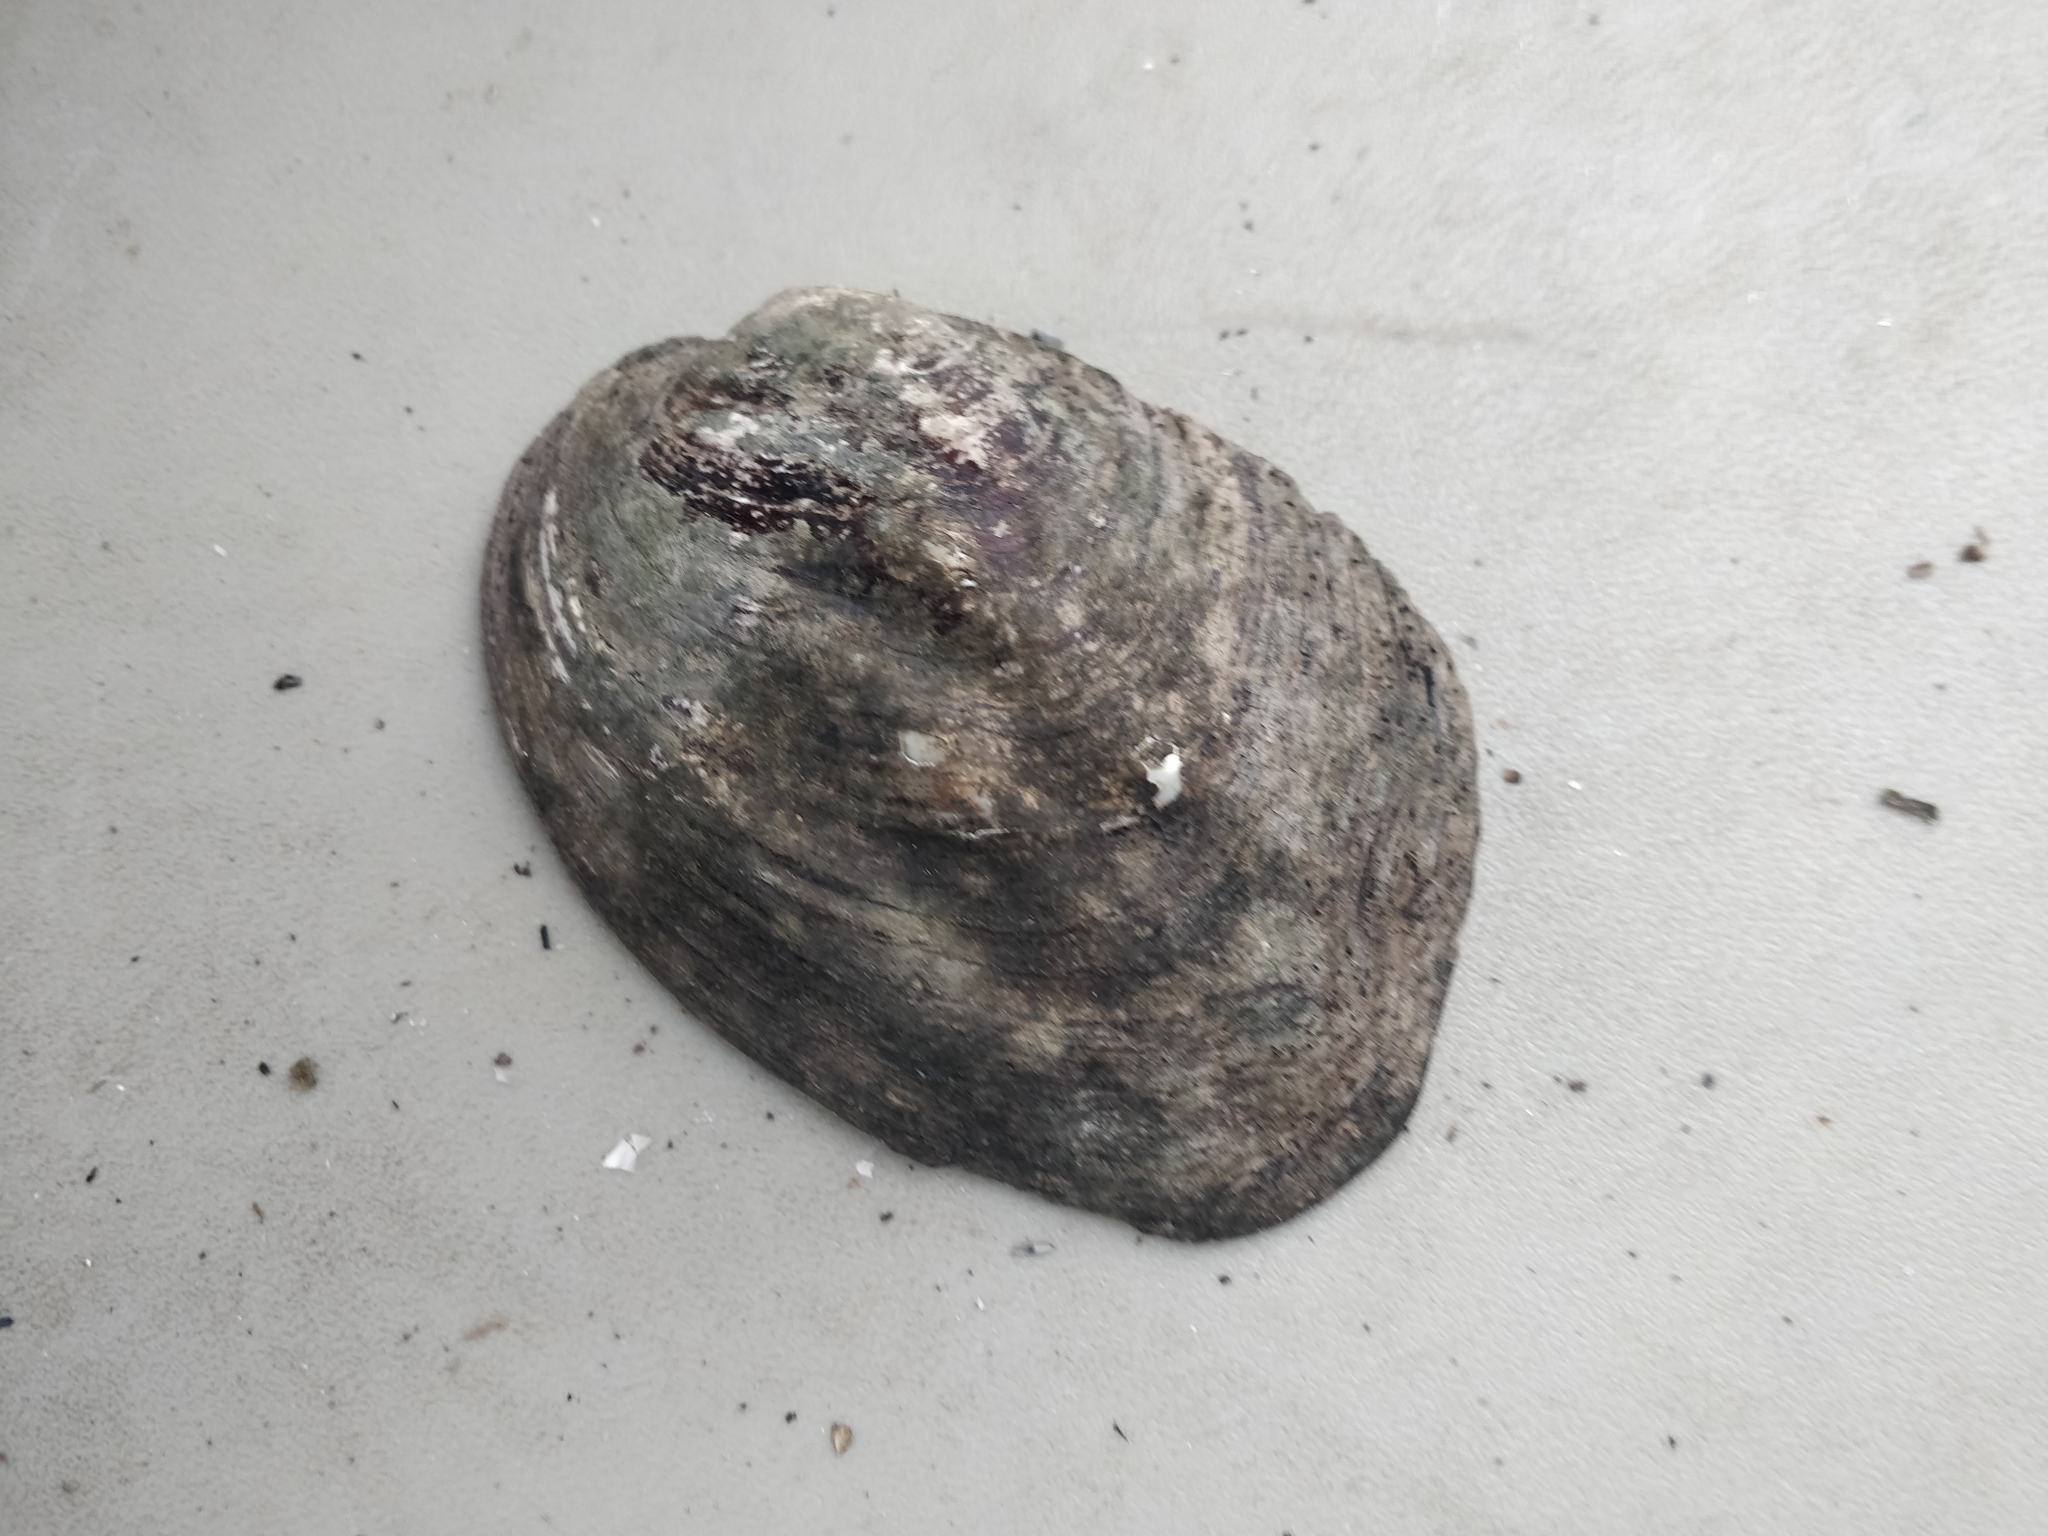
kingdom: Animalia
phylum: Mollusca
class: Bivalvia
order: Unionida
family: Unionidae
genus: Amblema
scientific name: Amblema plicata
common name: Threeridge
